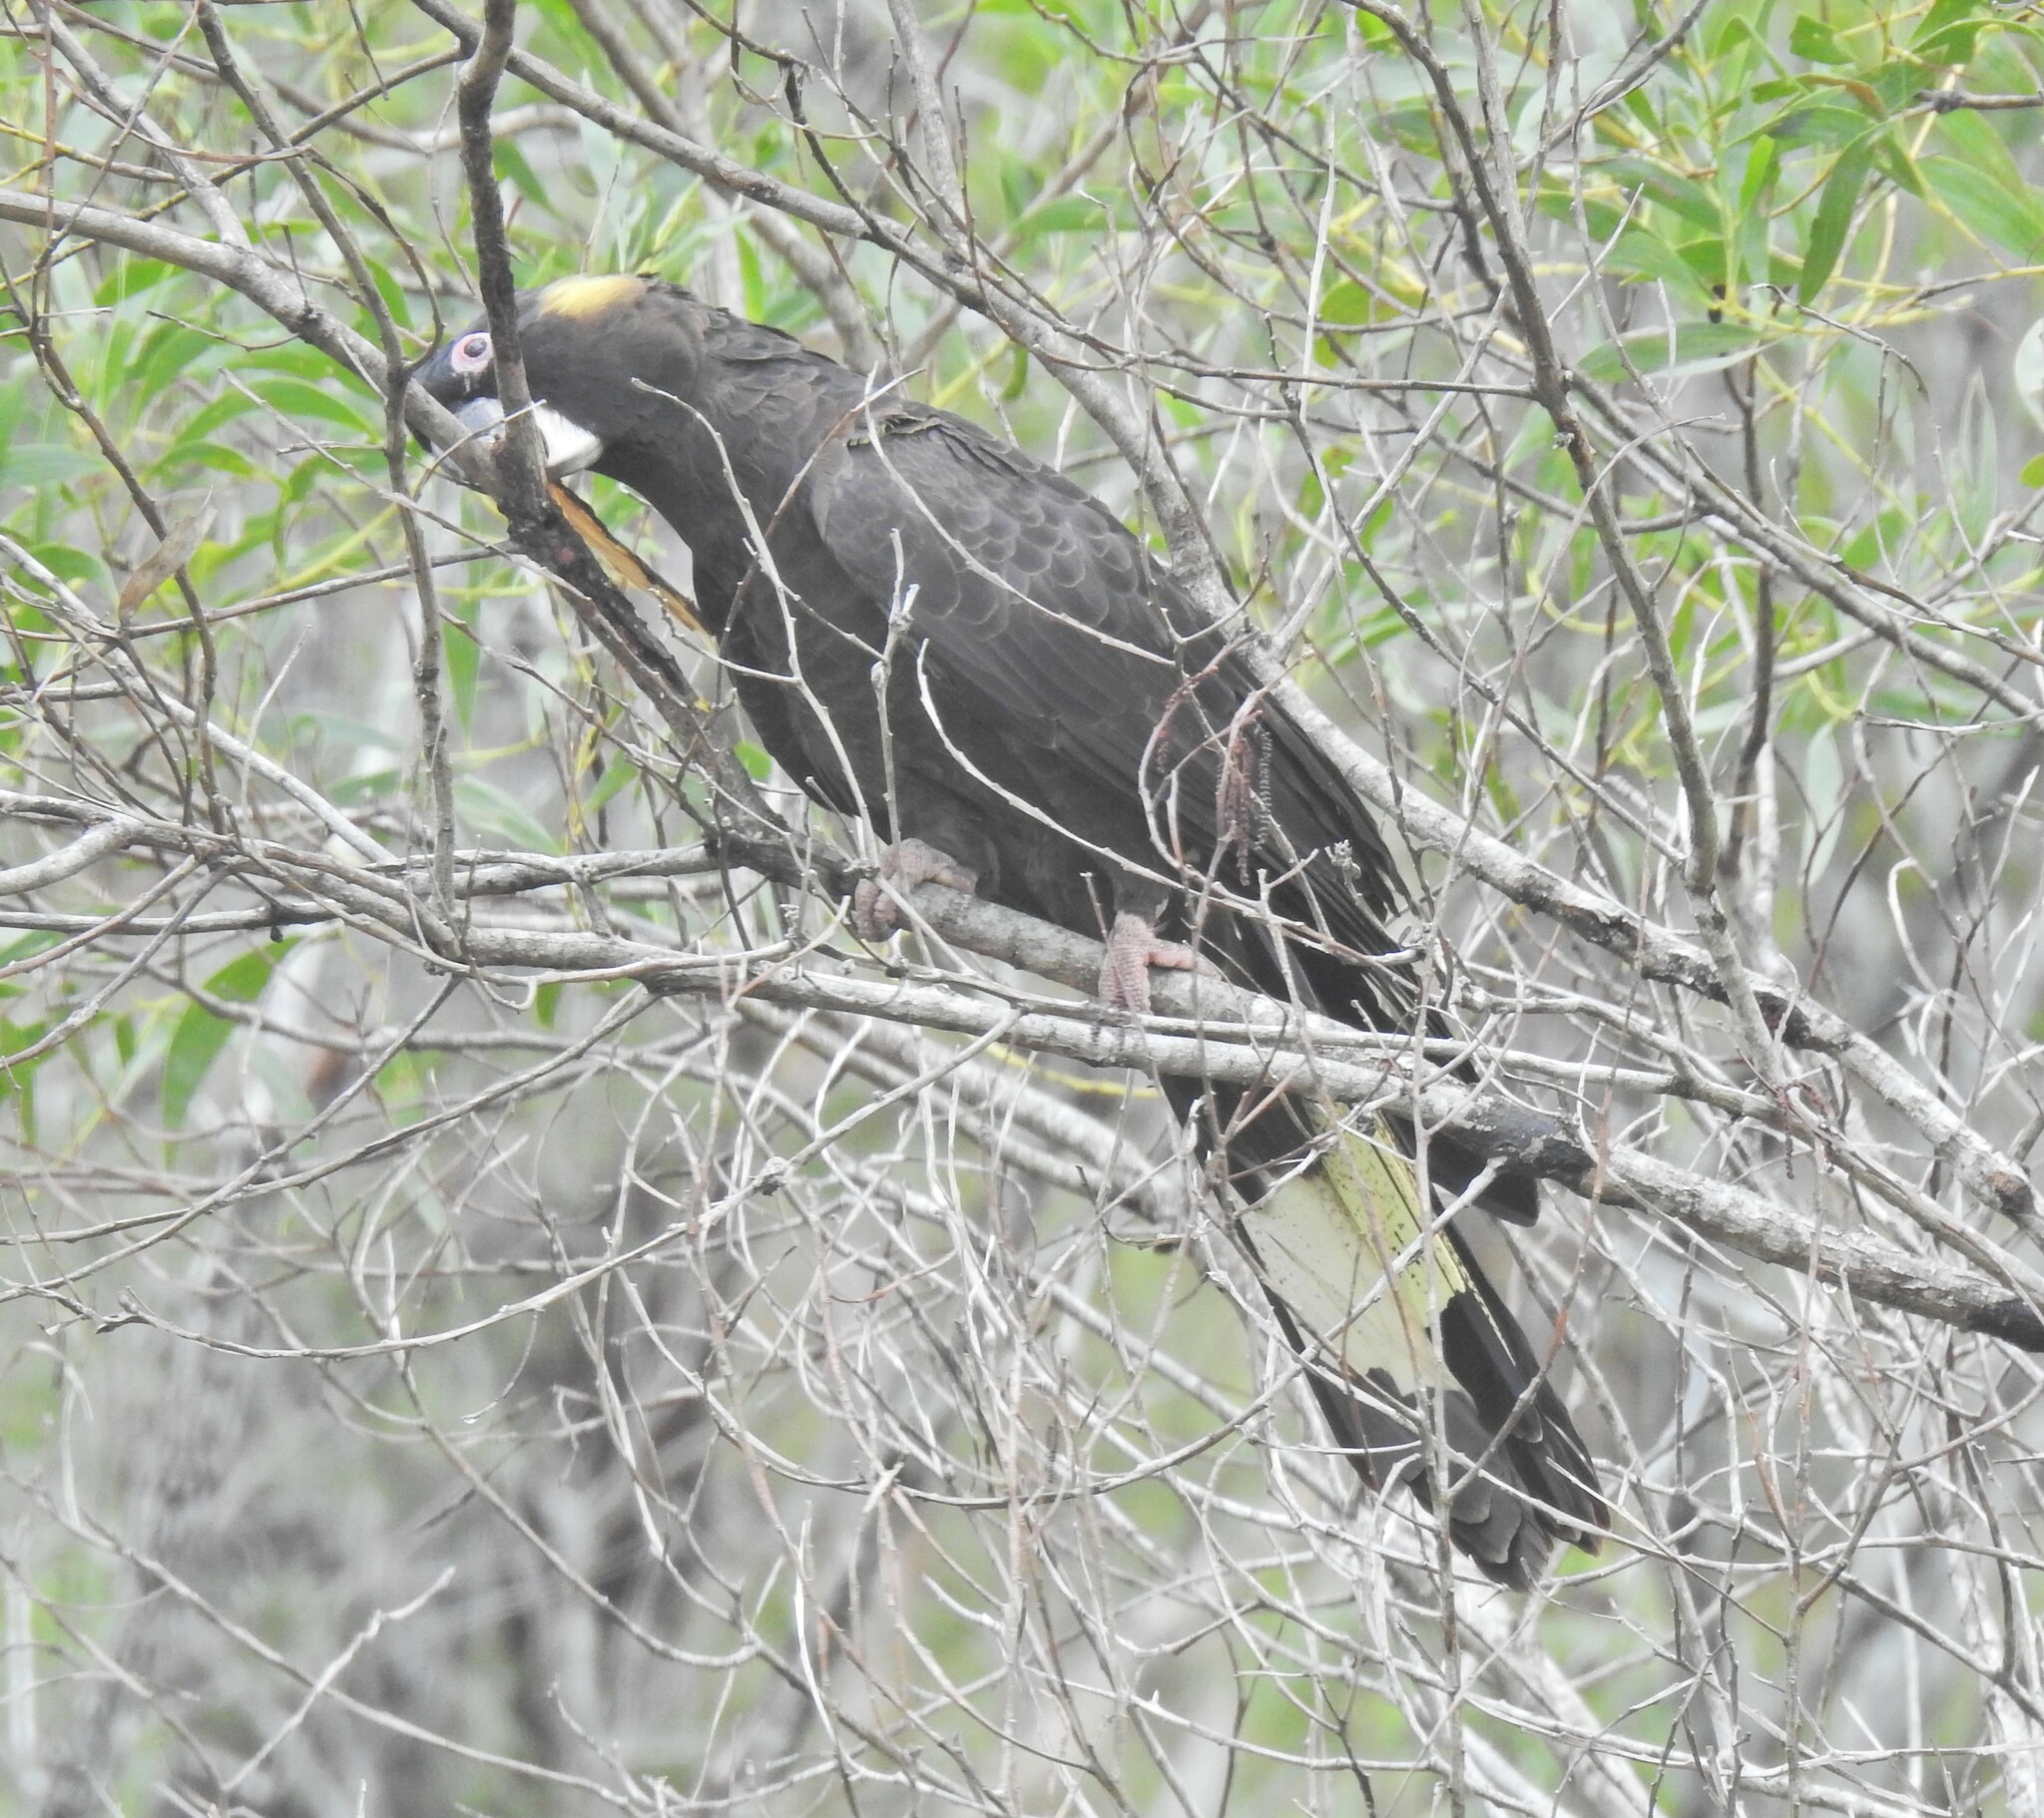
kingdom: Animalia
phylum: Chordata
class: Aves
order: Psittaciformes
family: Cacatuidae
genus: Zanda
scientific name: Zanda funerea
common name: Yellow-tailed black-cockatoo
